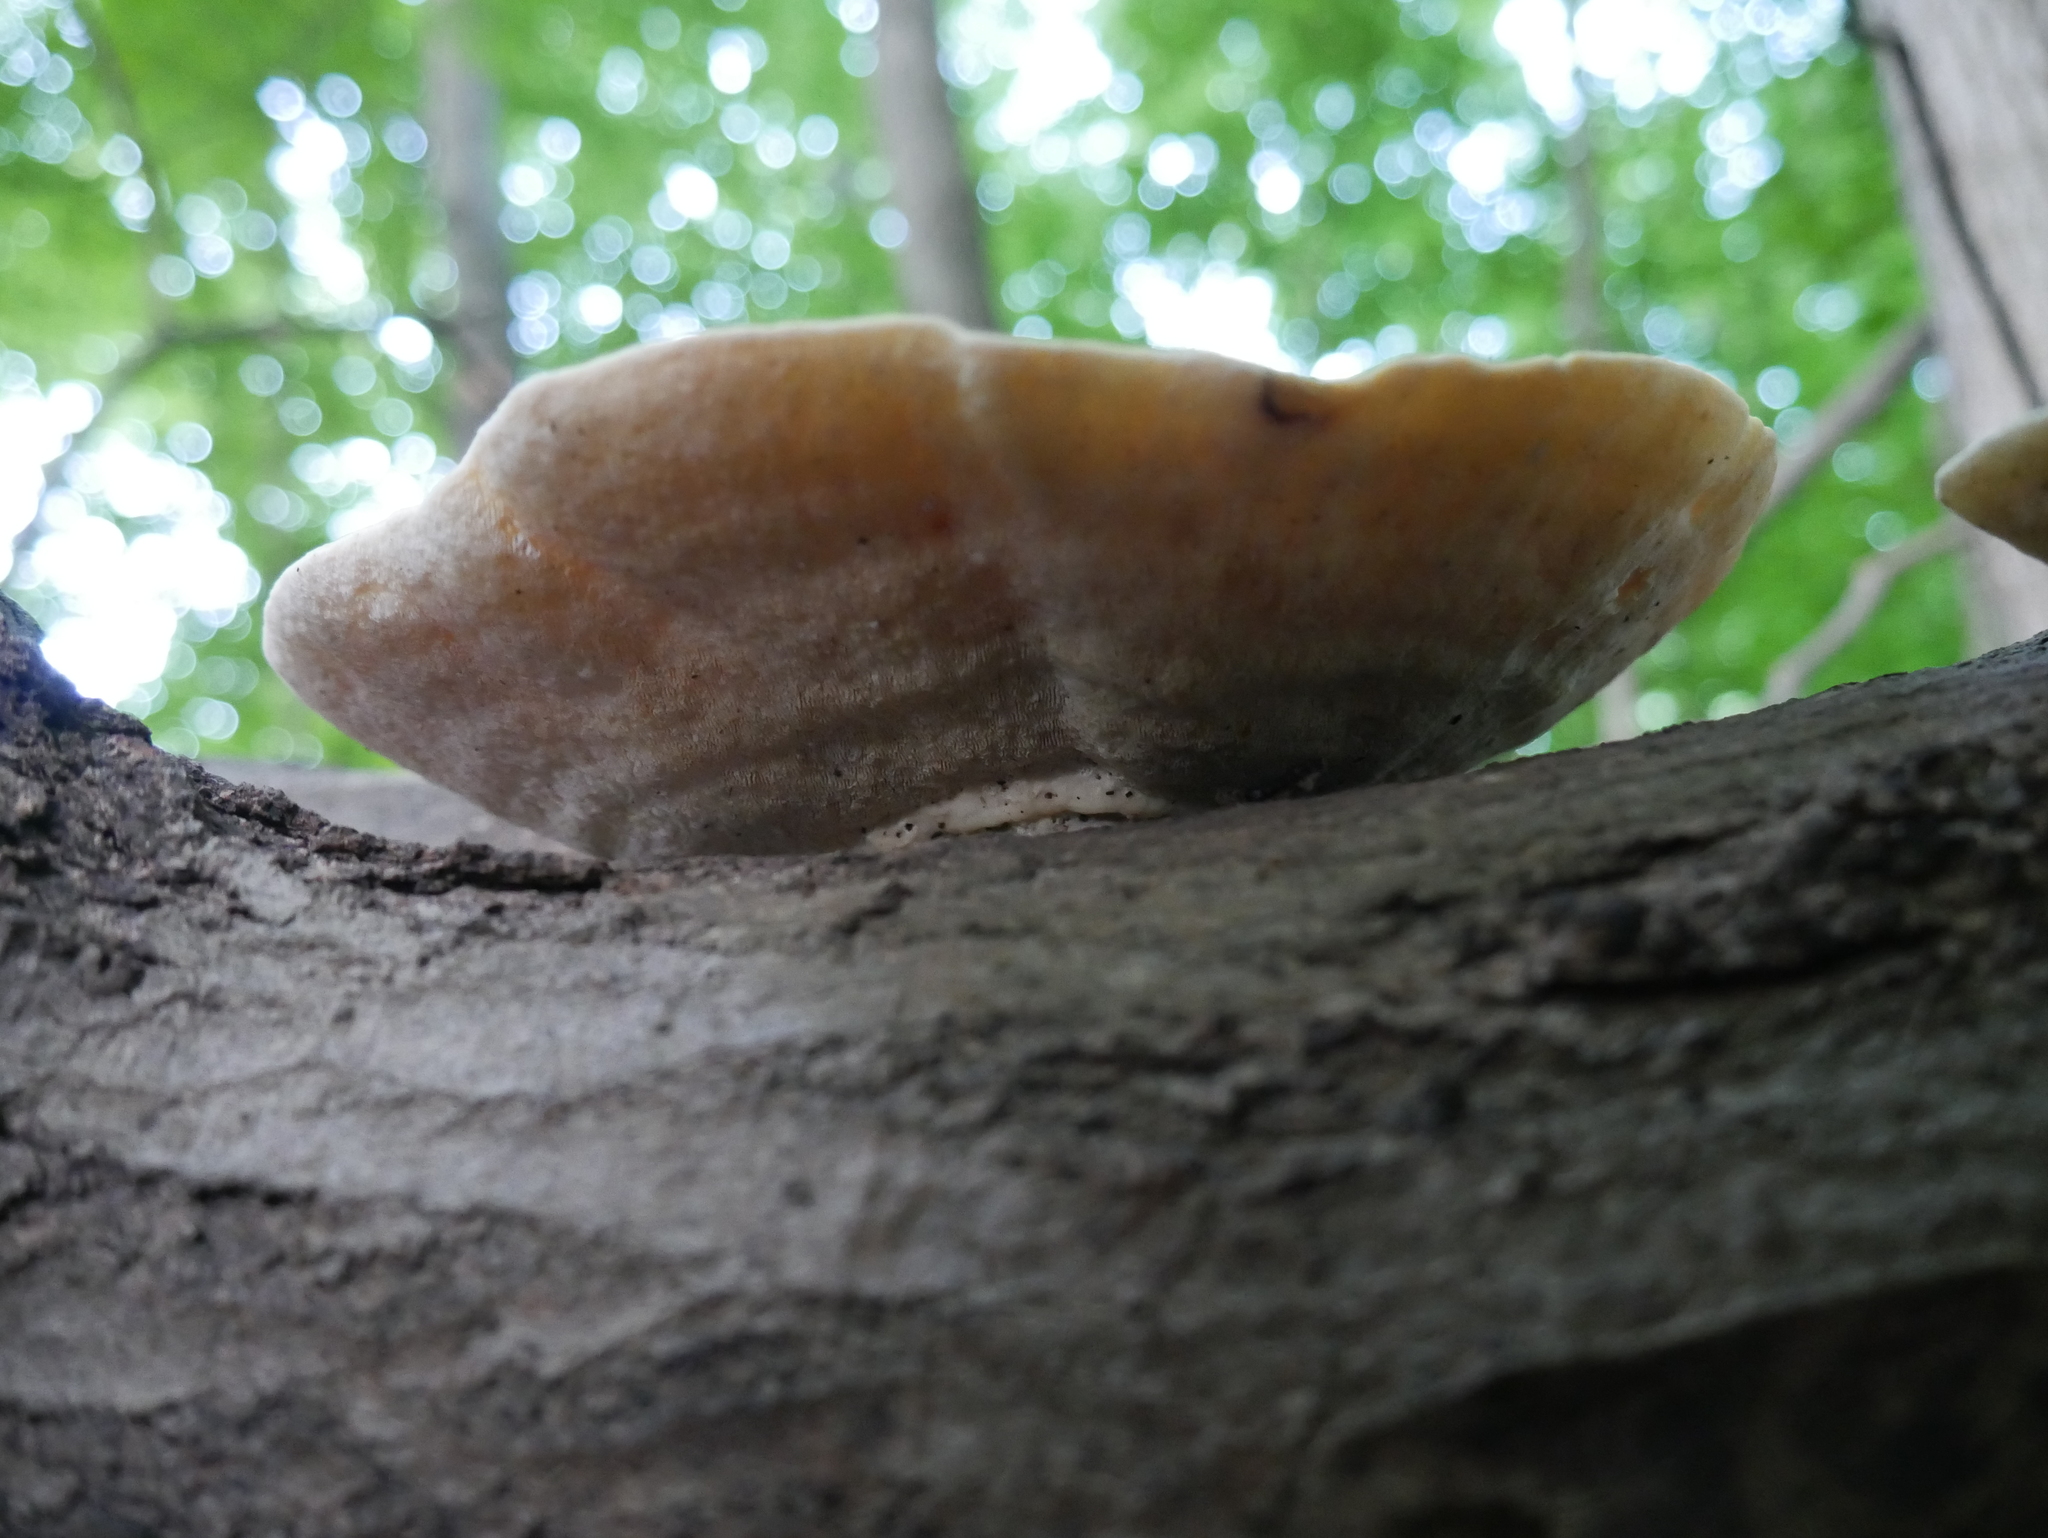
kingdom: Fungi
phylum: Basidiomycota
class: Agaricomycetes
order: Polyporales
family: Polyporaceae
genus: Trametes
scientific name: Trametes
